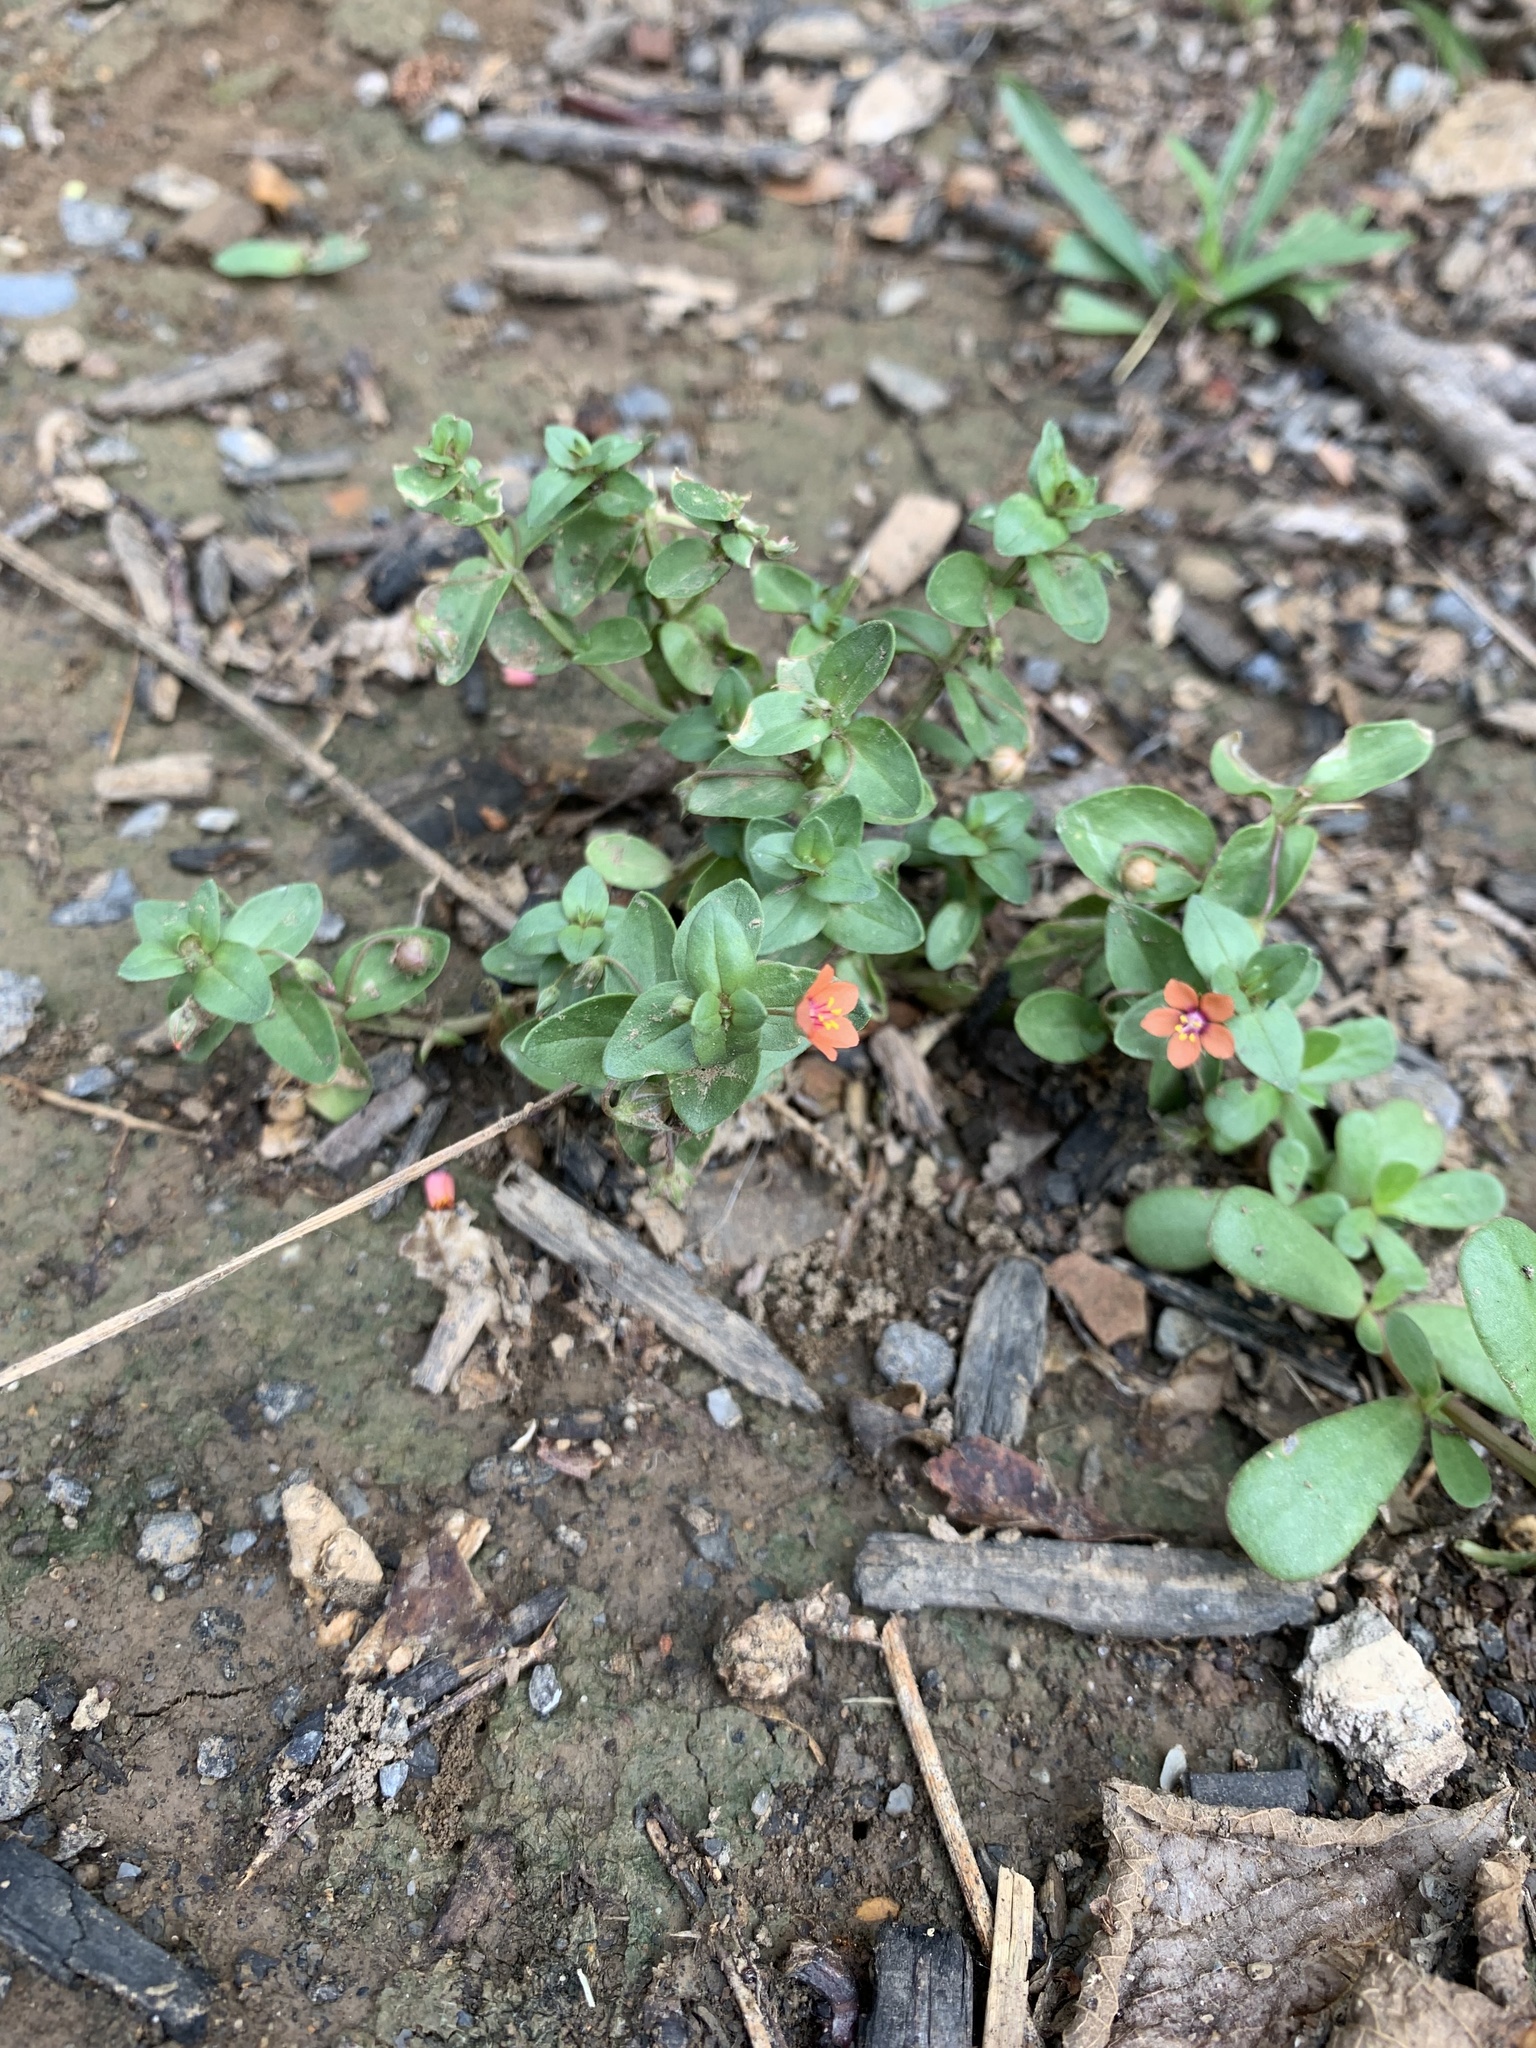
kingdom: Plantae
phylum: Tracheophyta
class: Magnoliopsida
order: Ericales
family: Primulaceae
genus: Lysimachia
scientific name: Lysimachia arvensis
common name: Scarlet pimpernel
